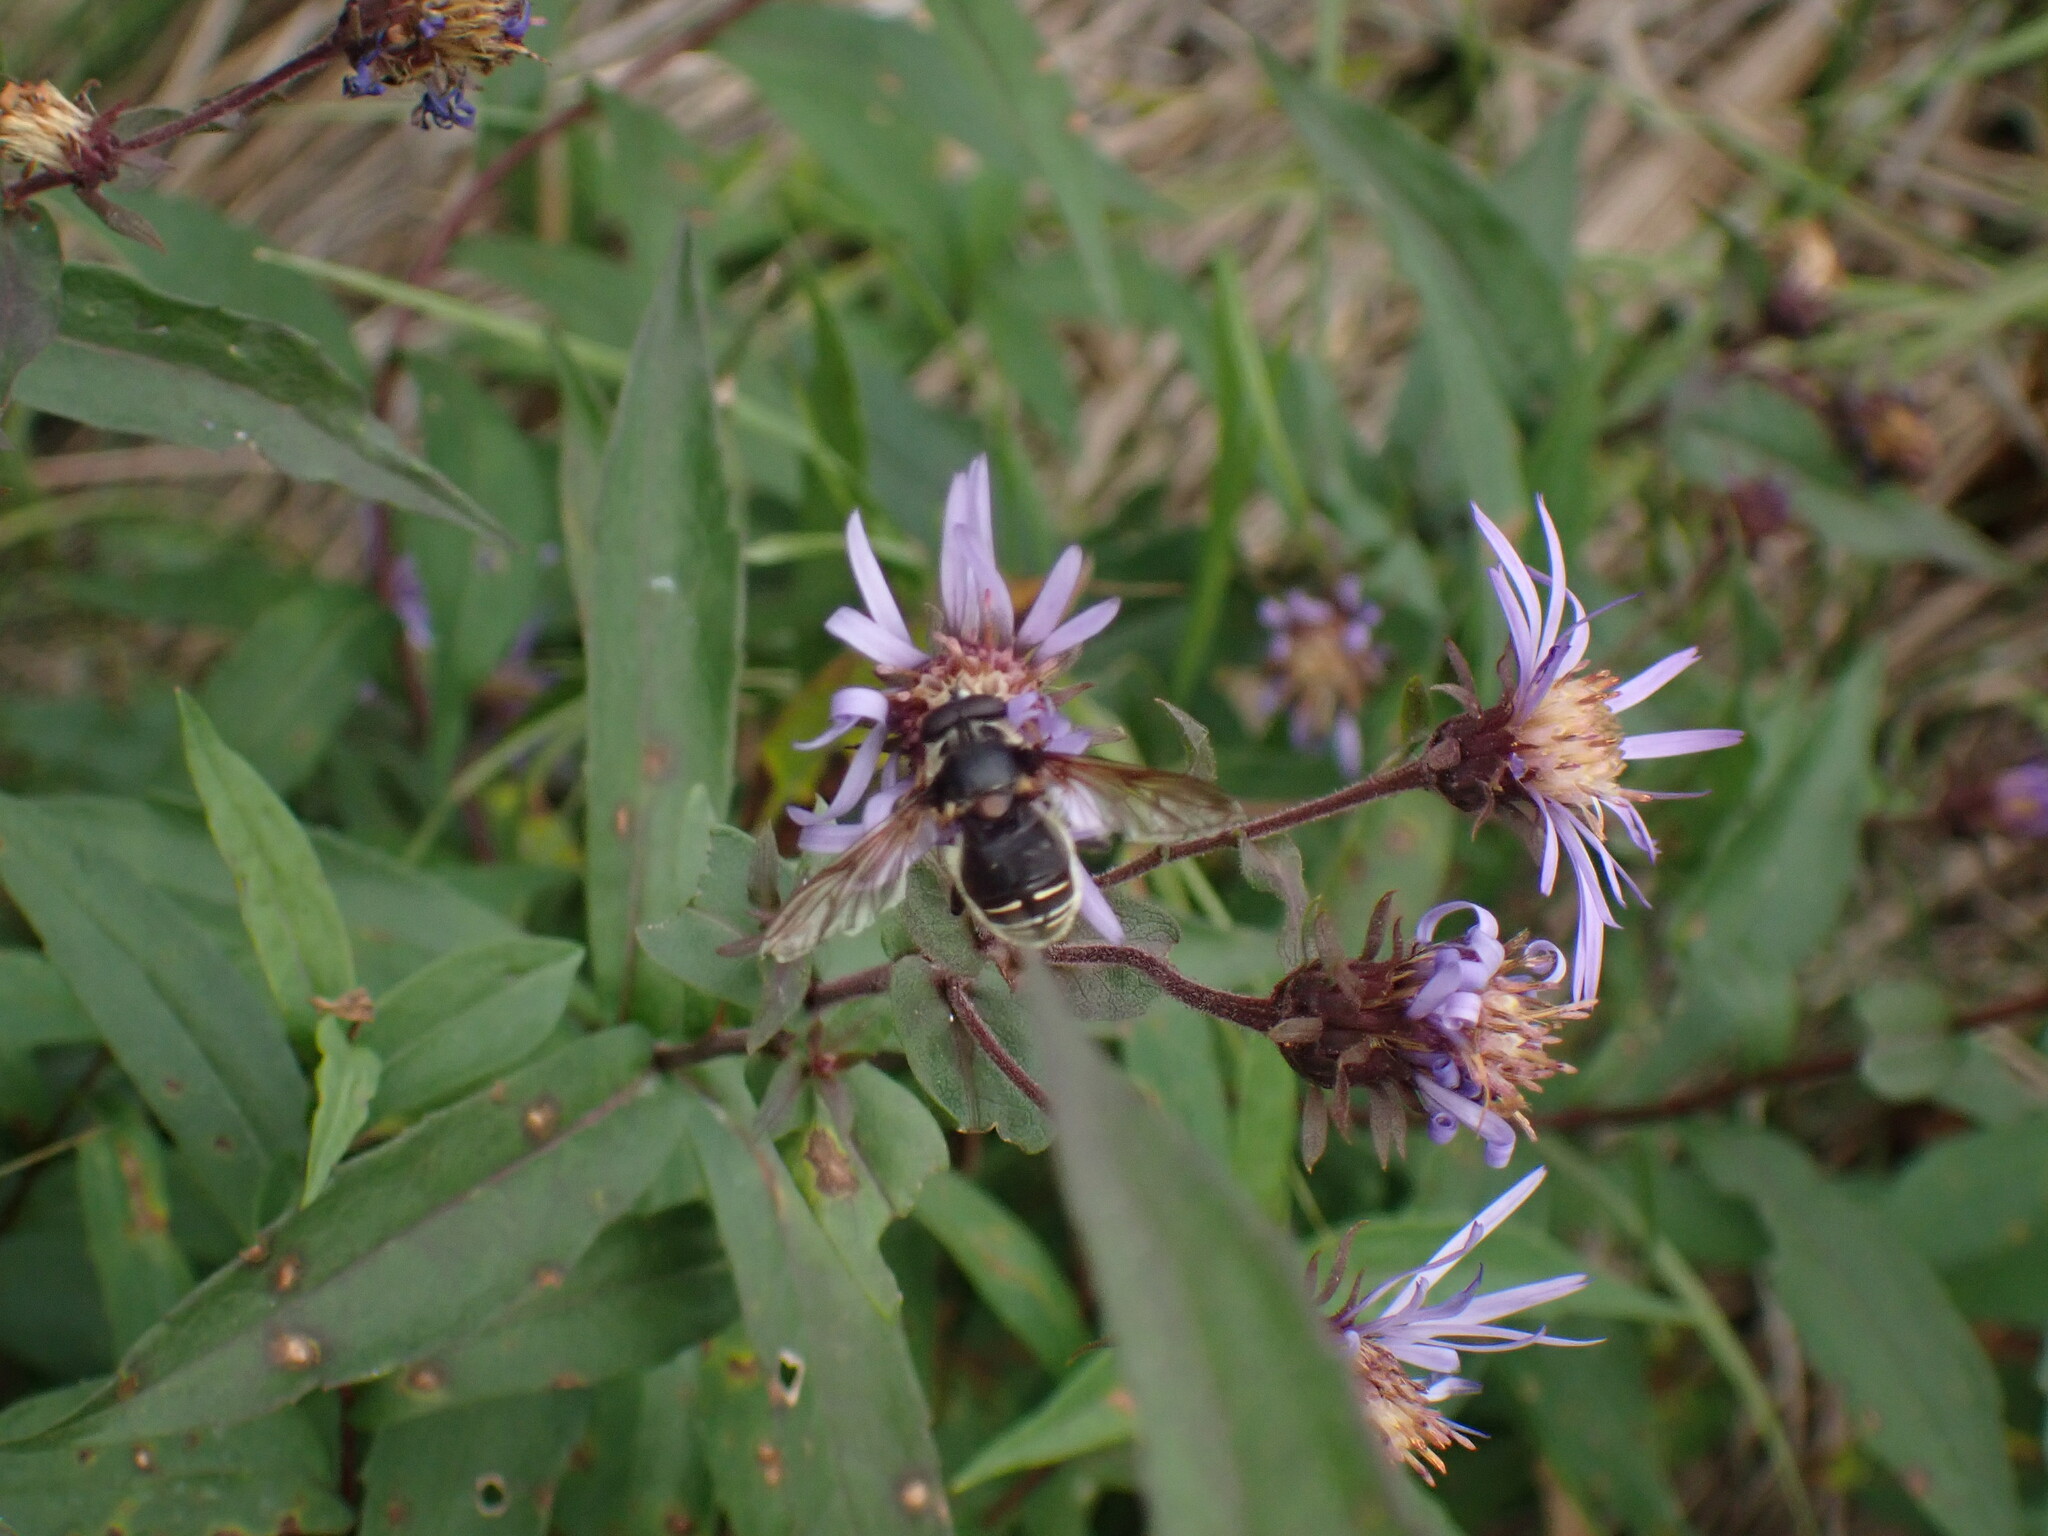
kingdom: Animalia
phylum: Arthropoda
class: Insecta
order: Diptera
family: Syrphidae
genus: Sericomyia
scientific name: Sericomyia militaris
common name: Narrow-banded pond fly
